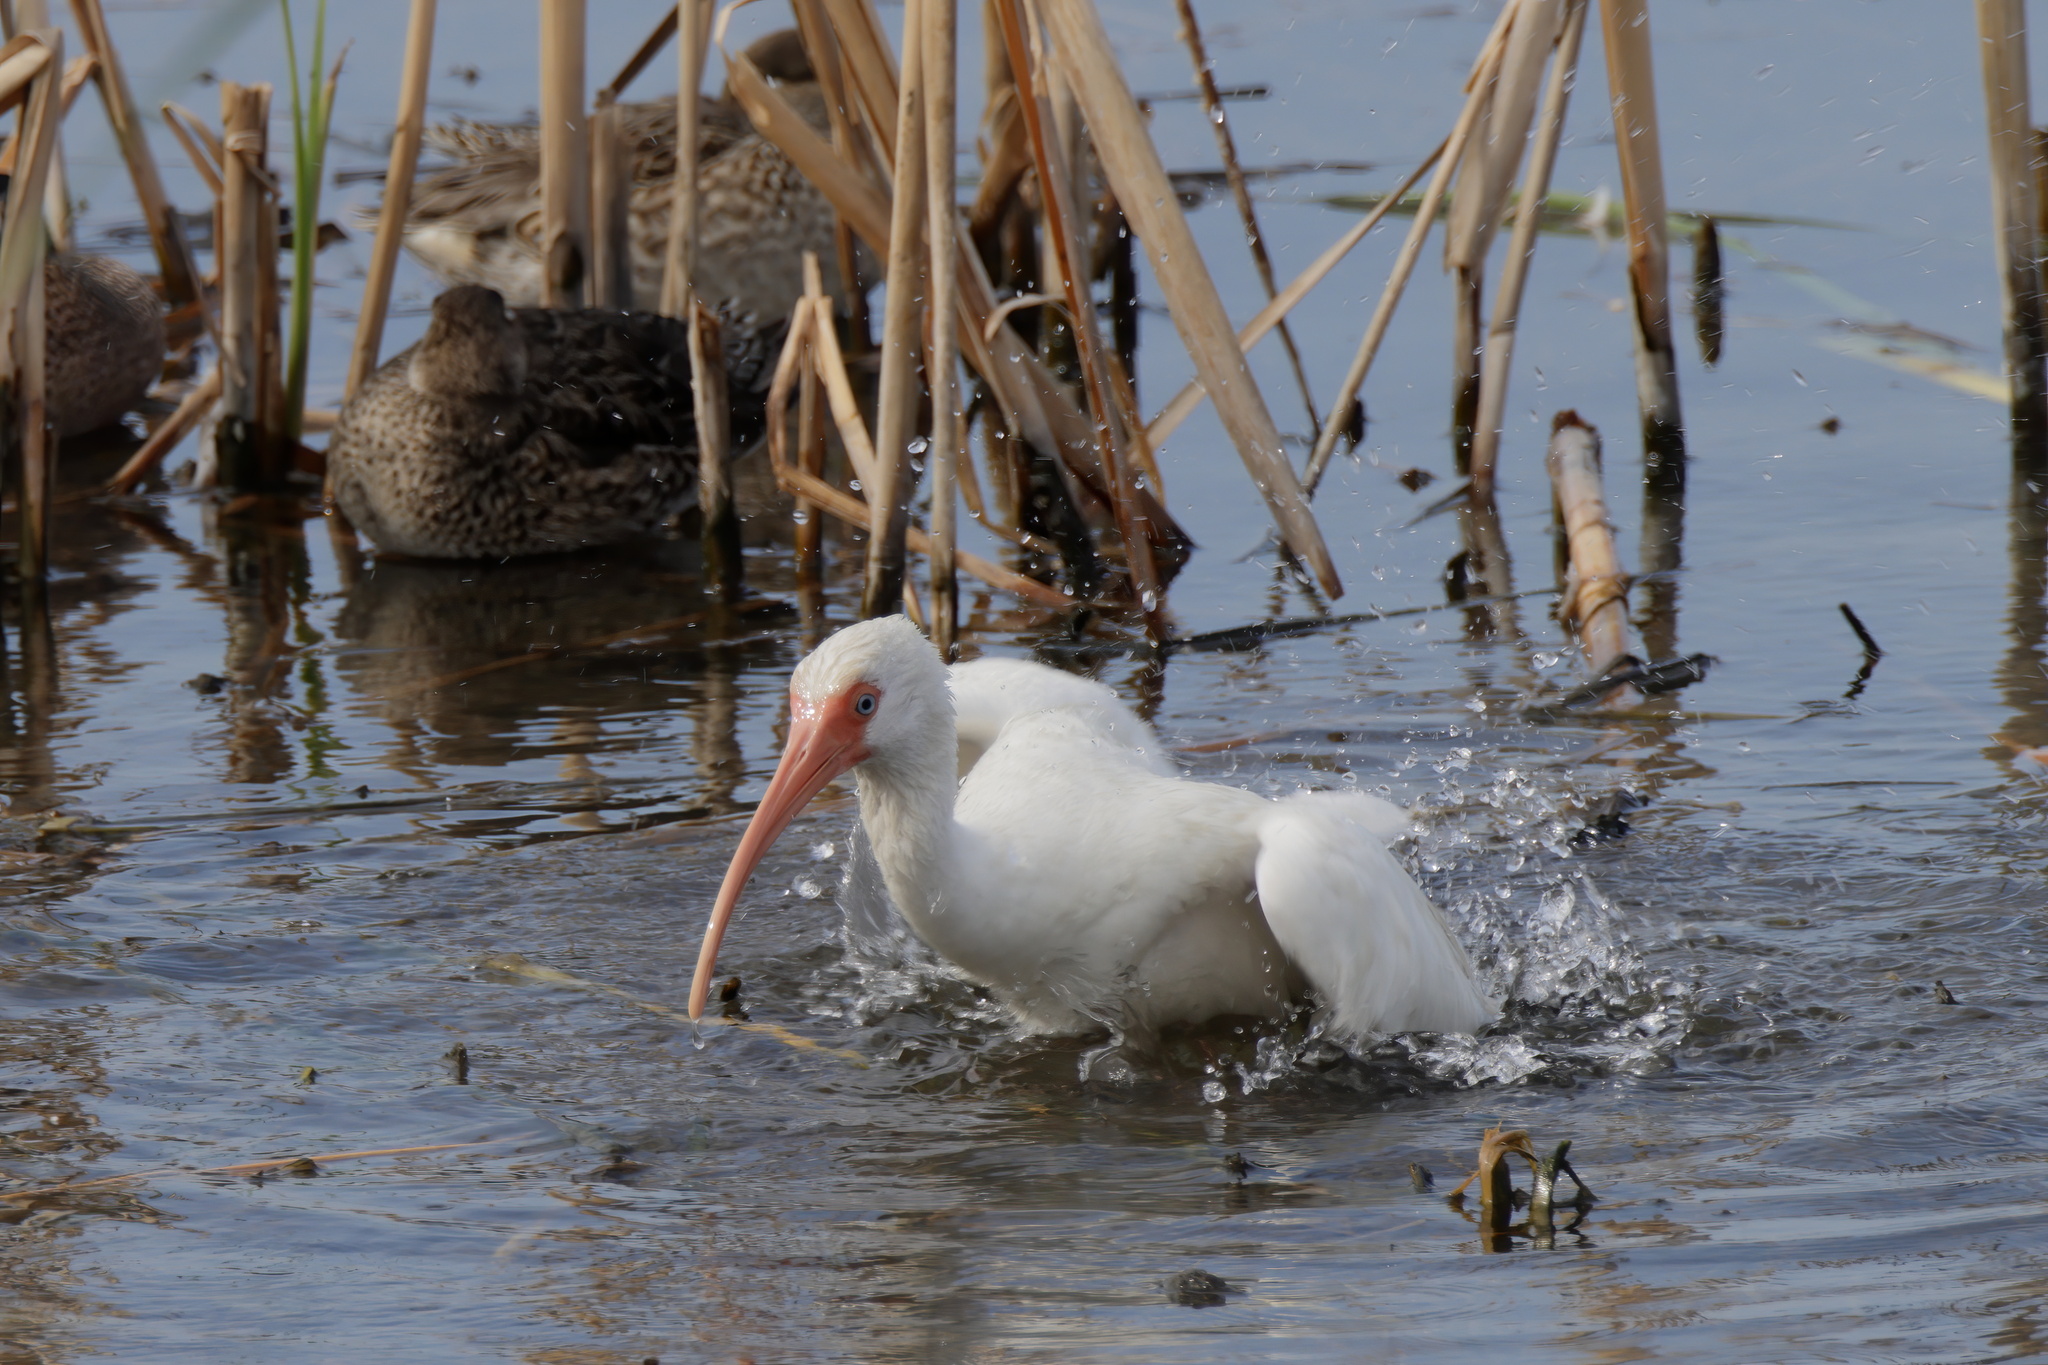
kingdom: Animalia
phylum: Chordata
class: Aves
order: Pelecaniformes
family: Threskiornithidae
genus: Eudocimus
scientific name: Eudocimus albus
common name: White ibis
